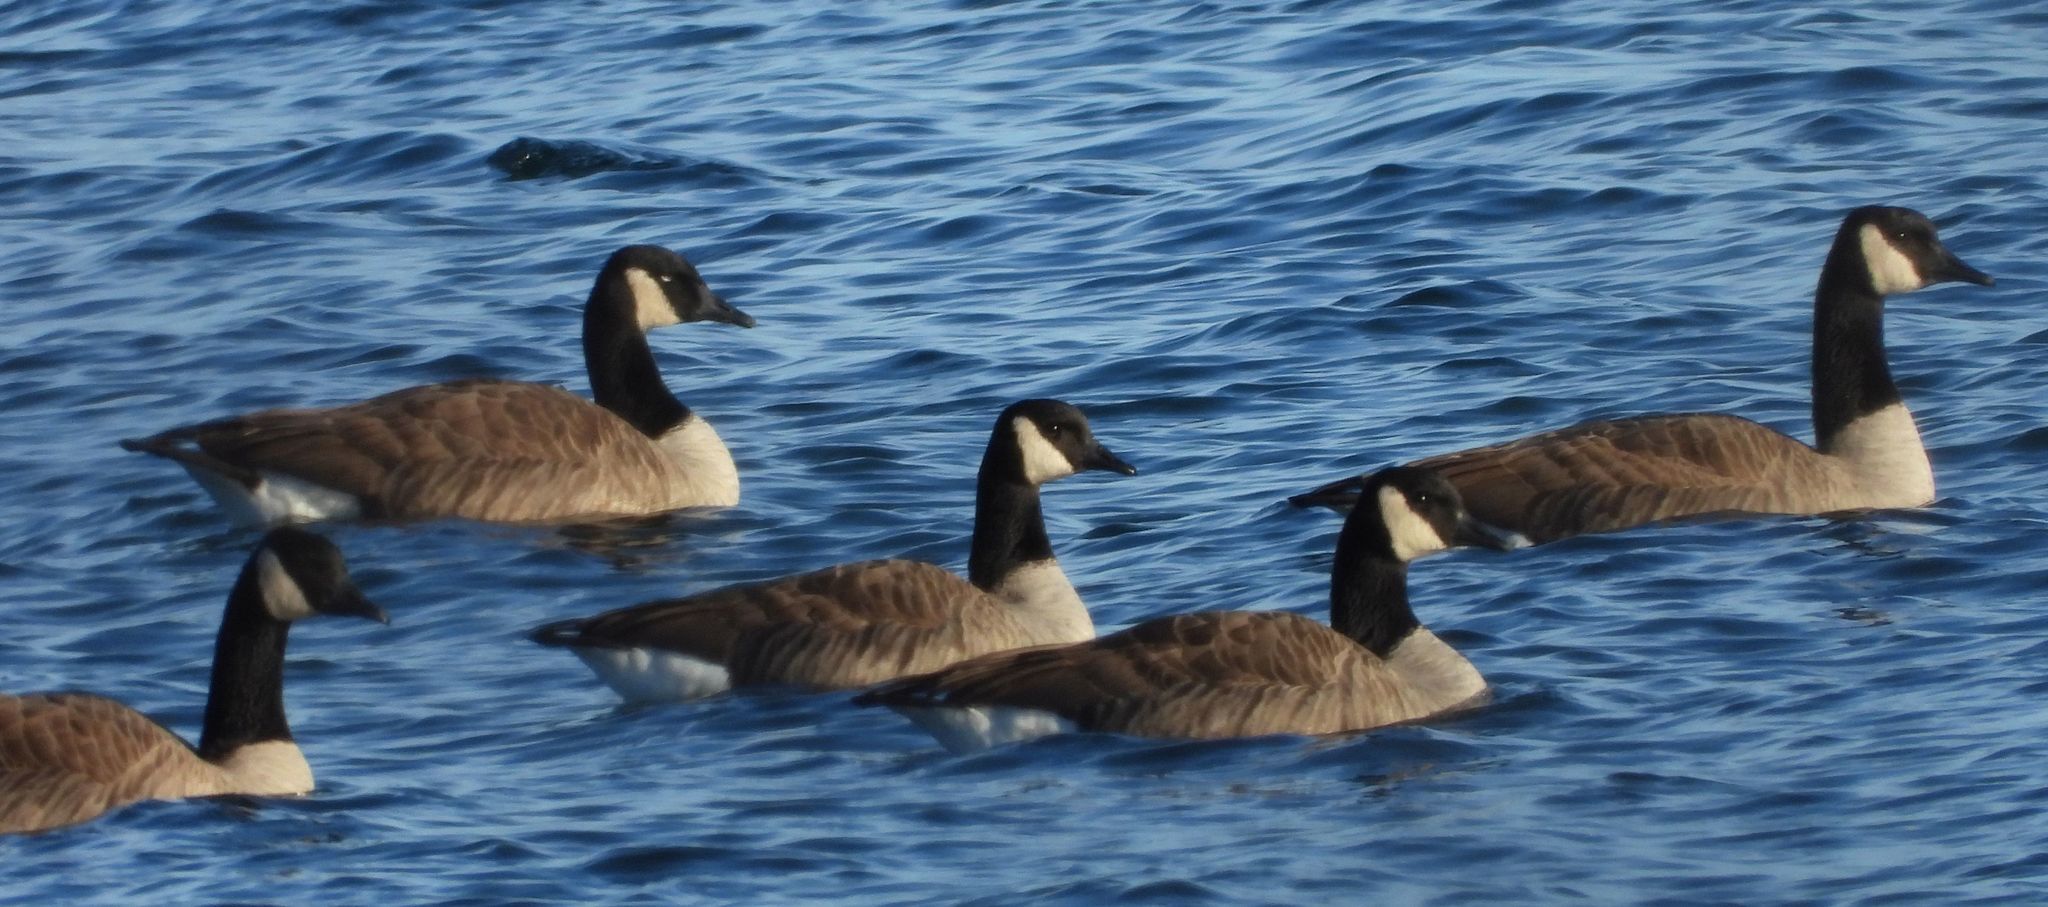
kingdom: Animalia
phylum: Chordata
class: Aves
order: Anseriformes
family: Anatidae
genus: Branta
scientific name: Branta canadensis
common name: Canada goose
